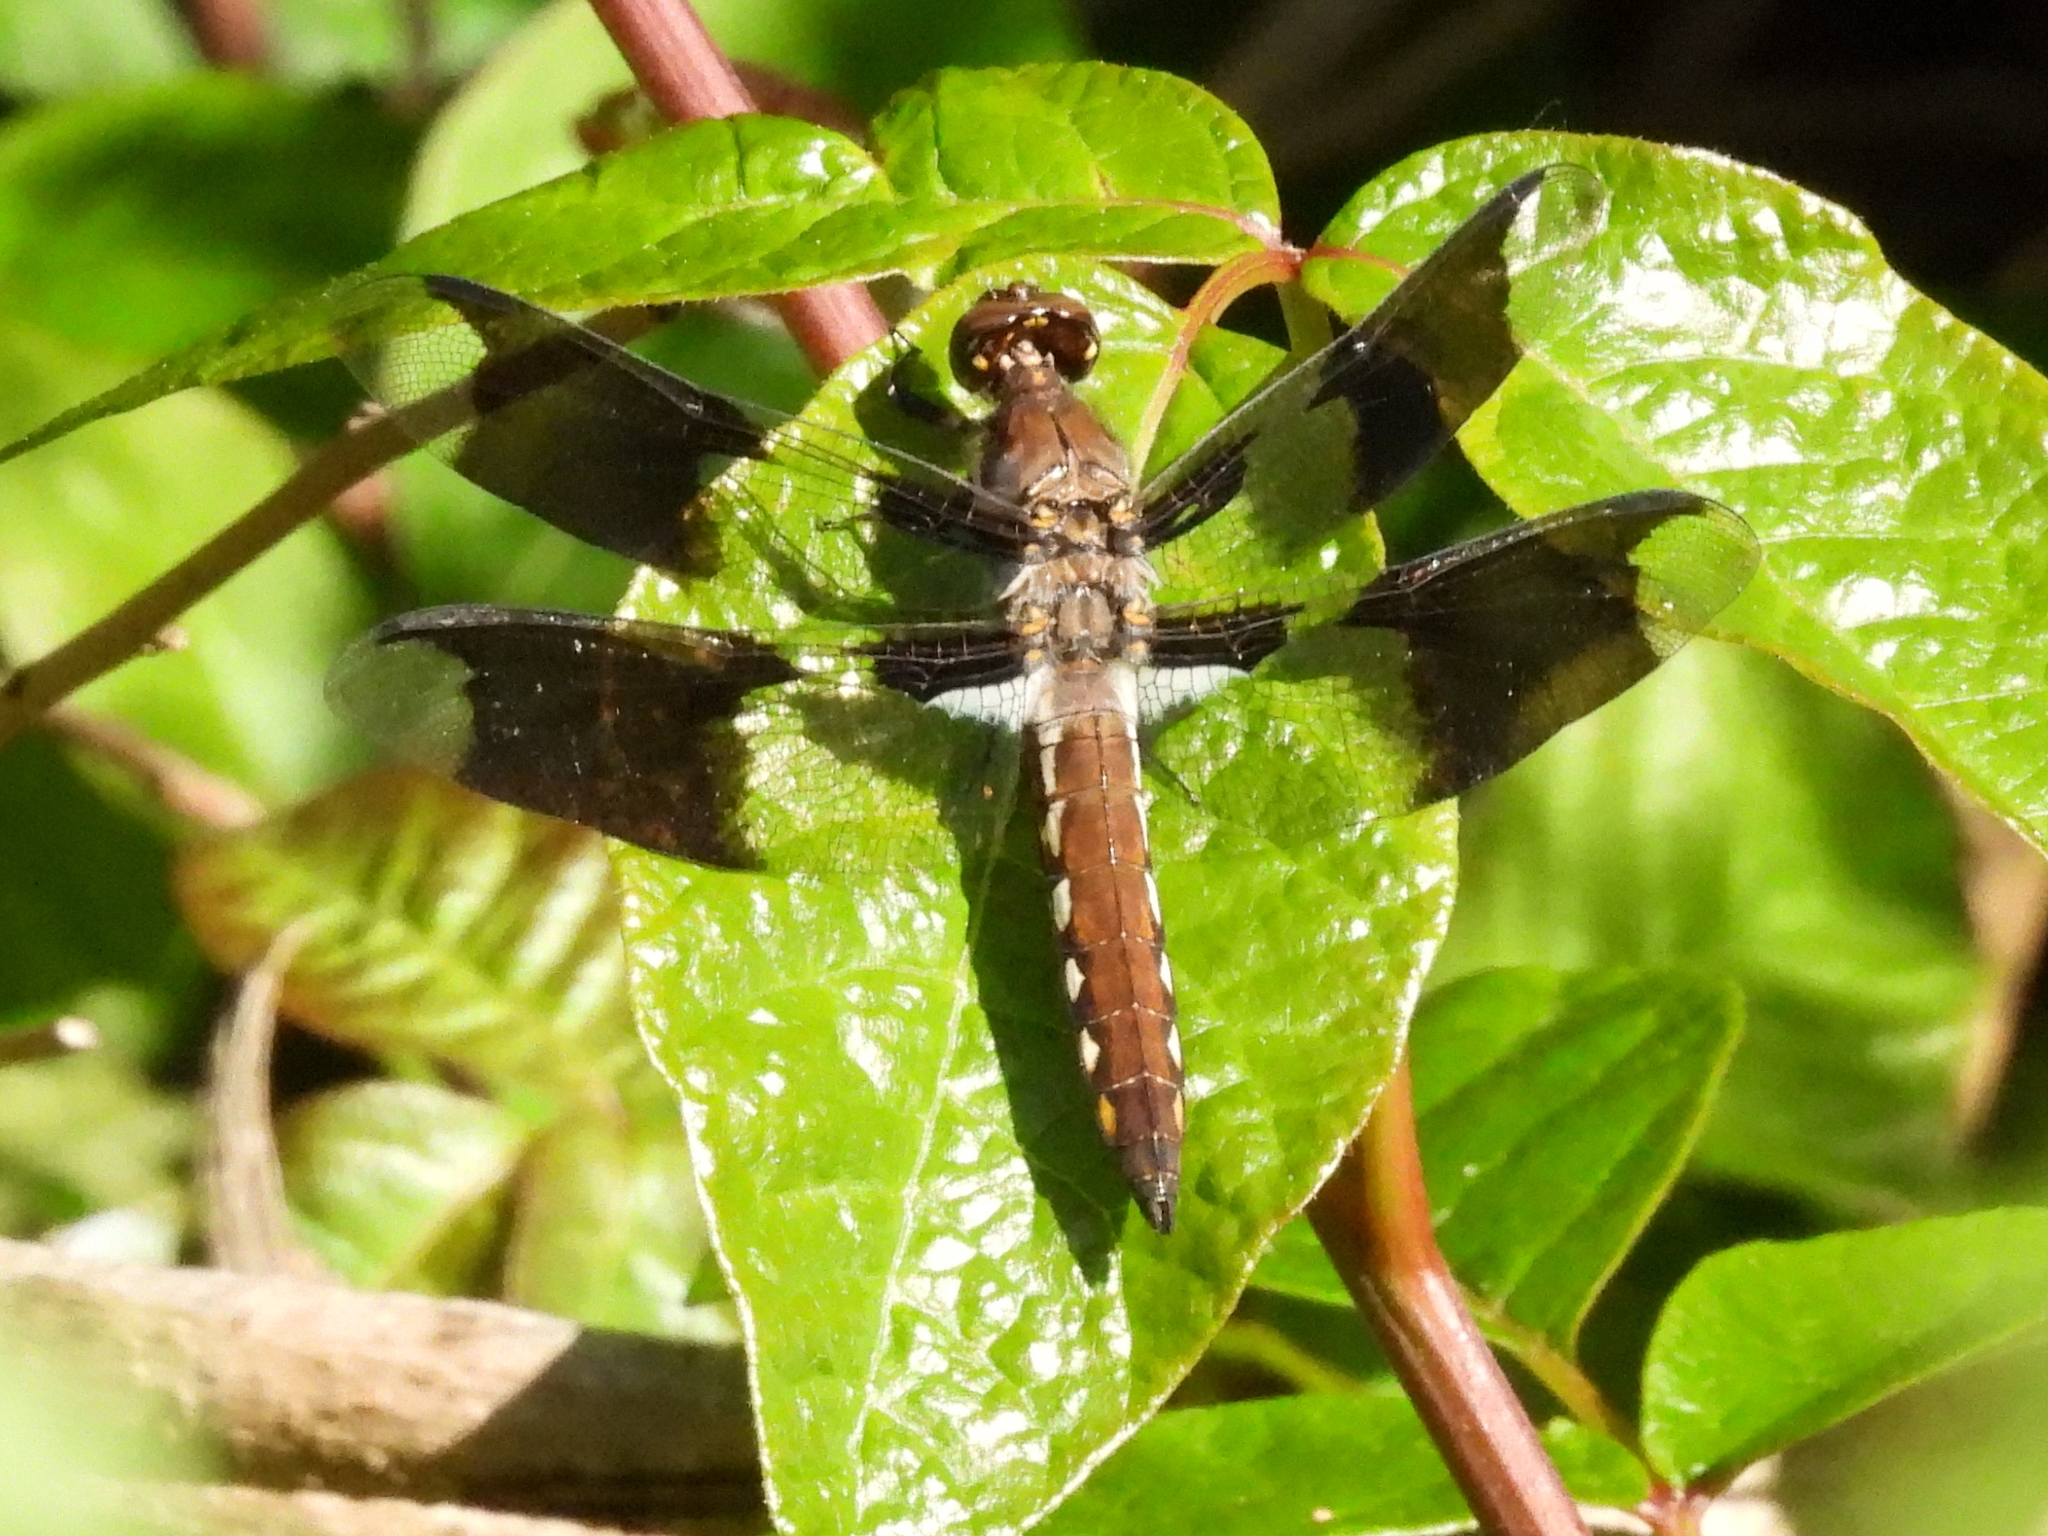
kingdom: Animalia
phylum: Arthropoda
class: Insecta
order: Odonata
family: Libellulidae
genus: Plathemis
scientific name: Plathemis lydia
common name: Common whitetail
